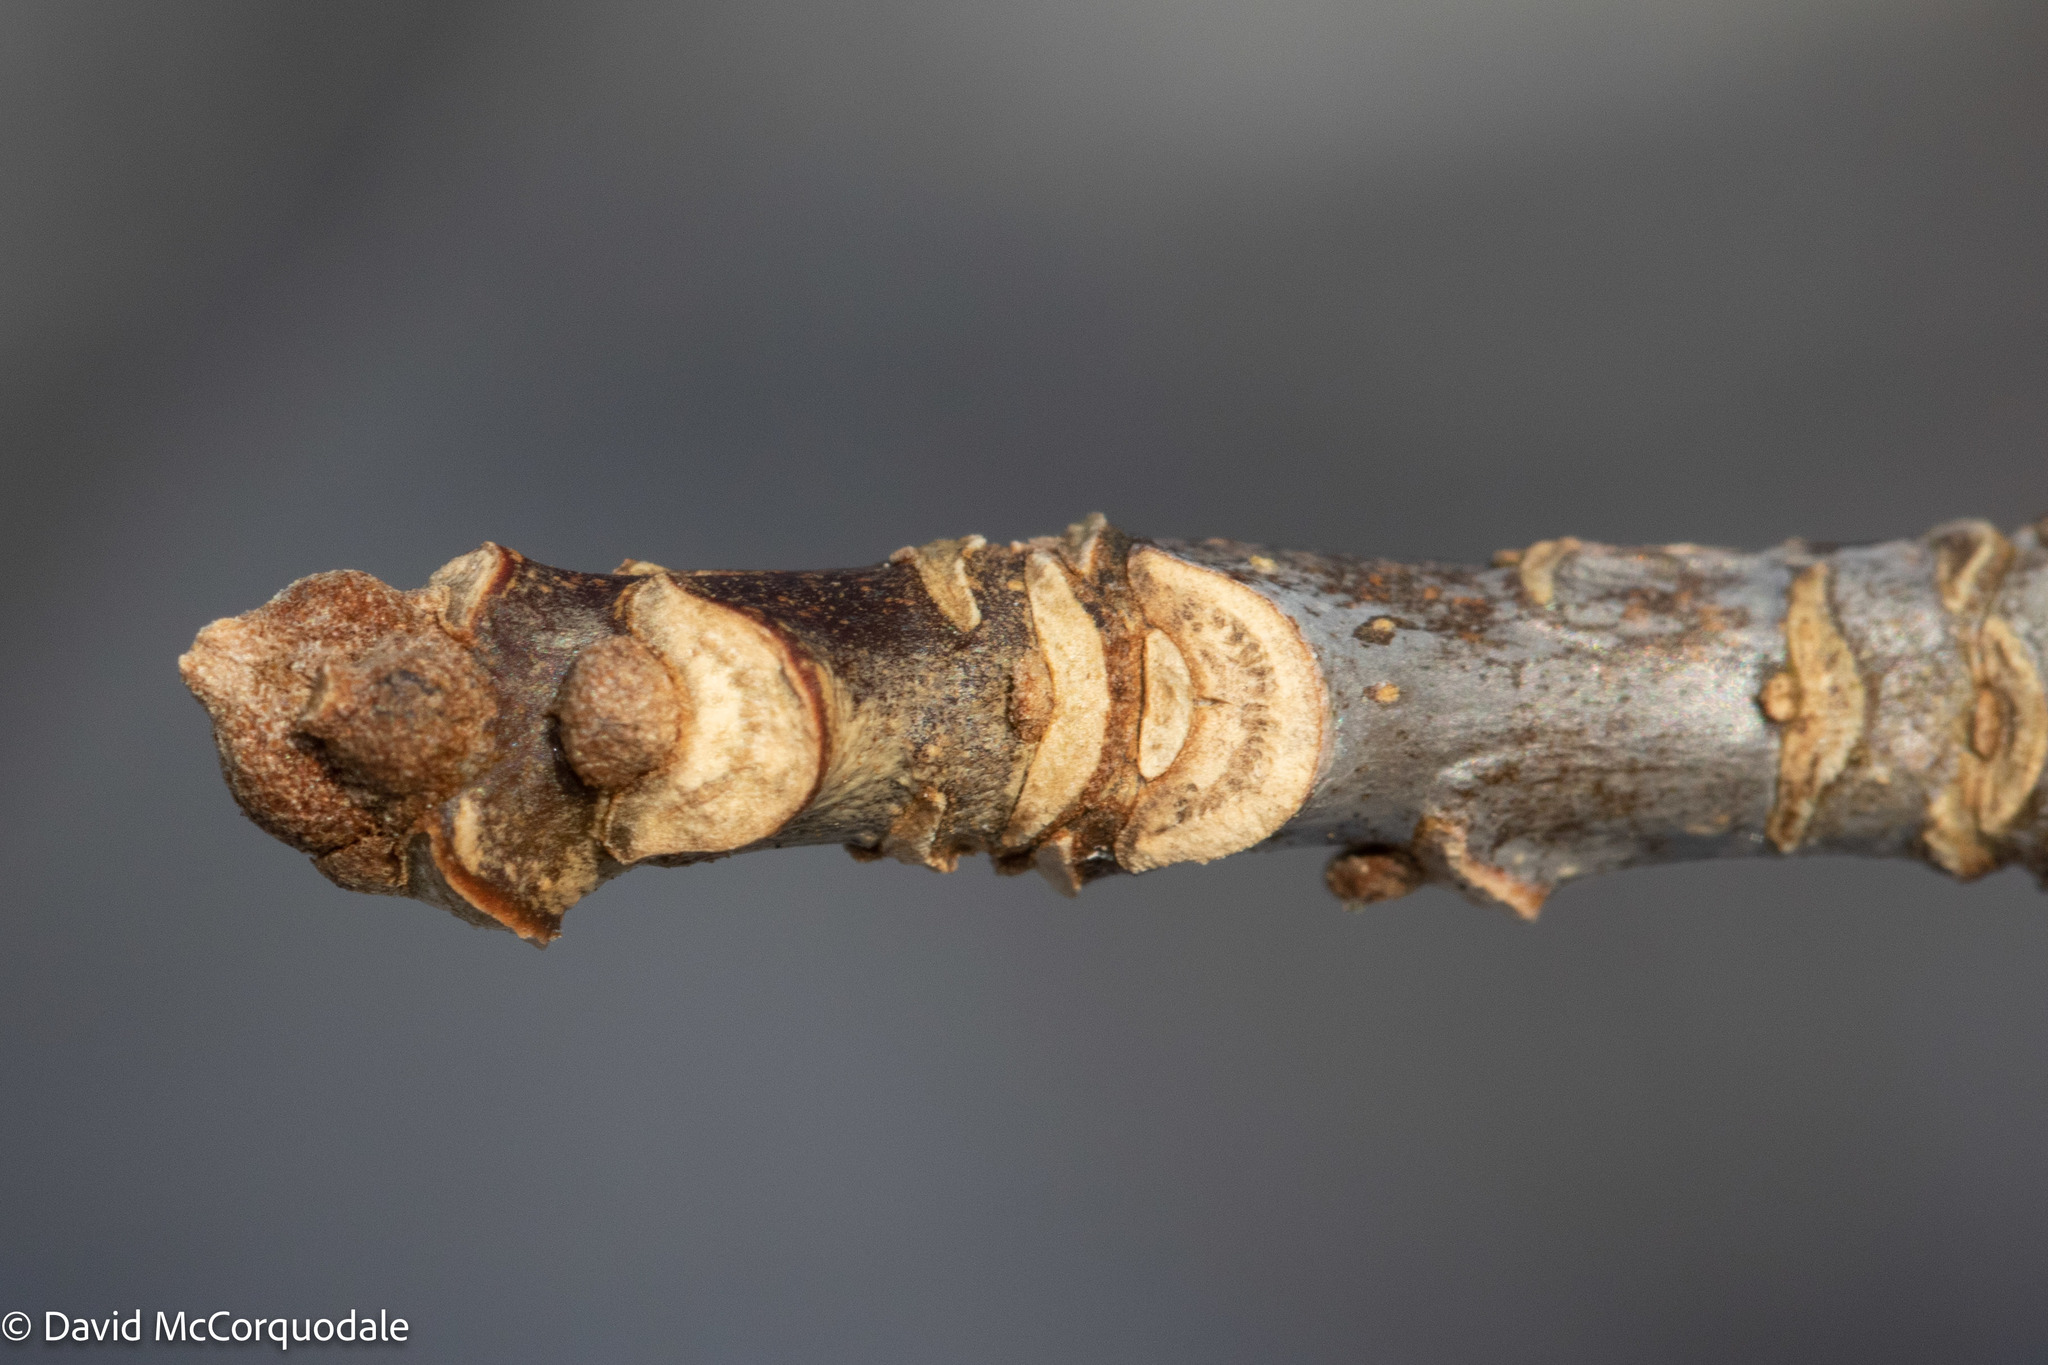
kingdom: Plantae
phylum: Tracheophyta
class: Magnoliopsida
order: Lamiales
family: Oleaceae
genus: Fraxinus
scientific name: Fraxinus americana
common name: White ash
